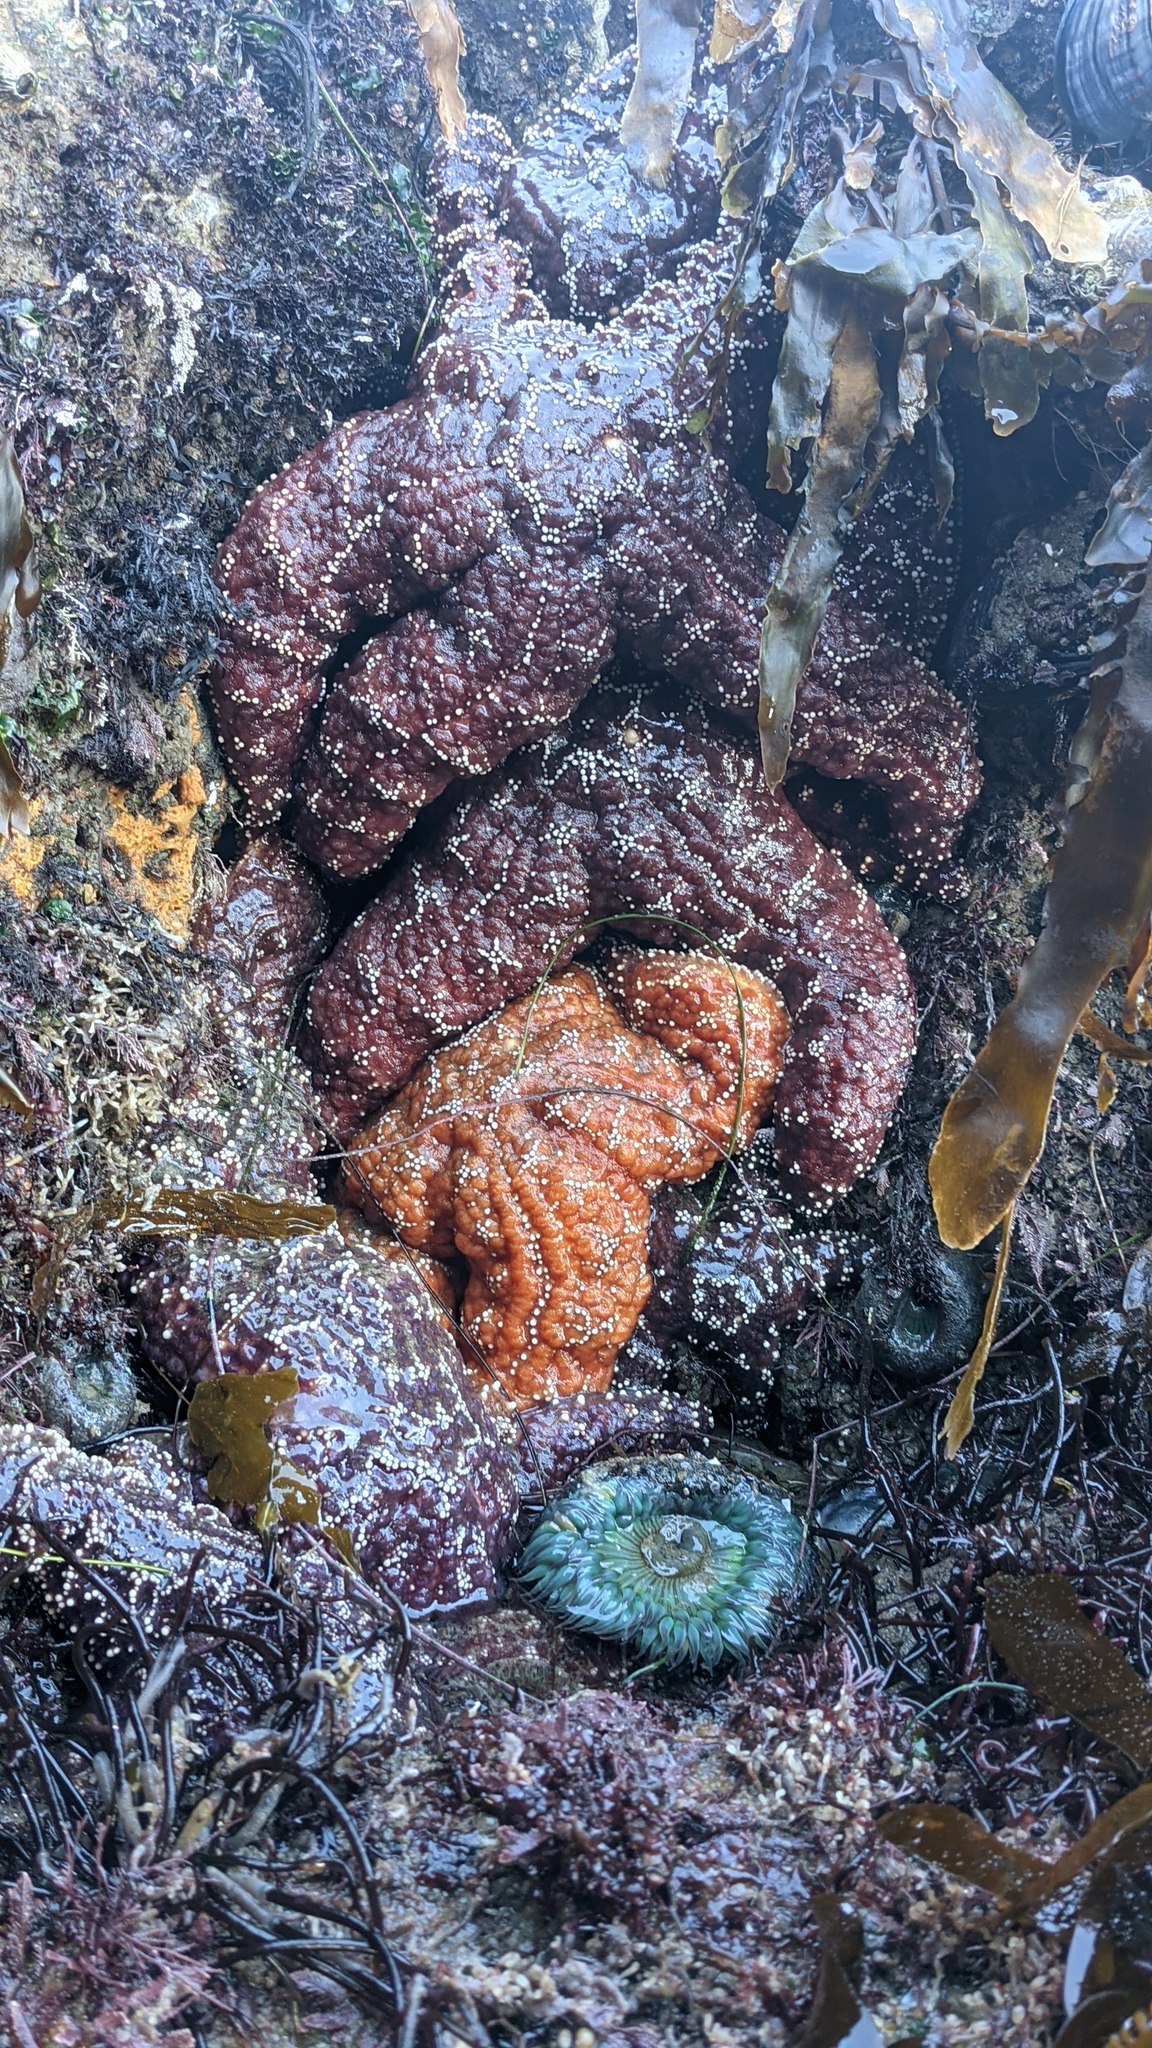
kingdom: Animalia
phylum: Echinodermata
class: Asteroidea
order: Forcipulatida
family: Asteriidae
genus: Pisaster
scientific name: Pisaster ochraceus
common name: Ochre stars
